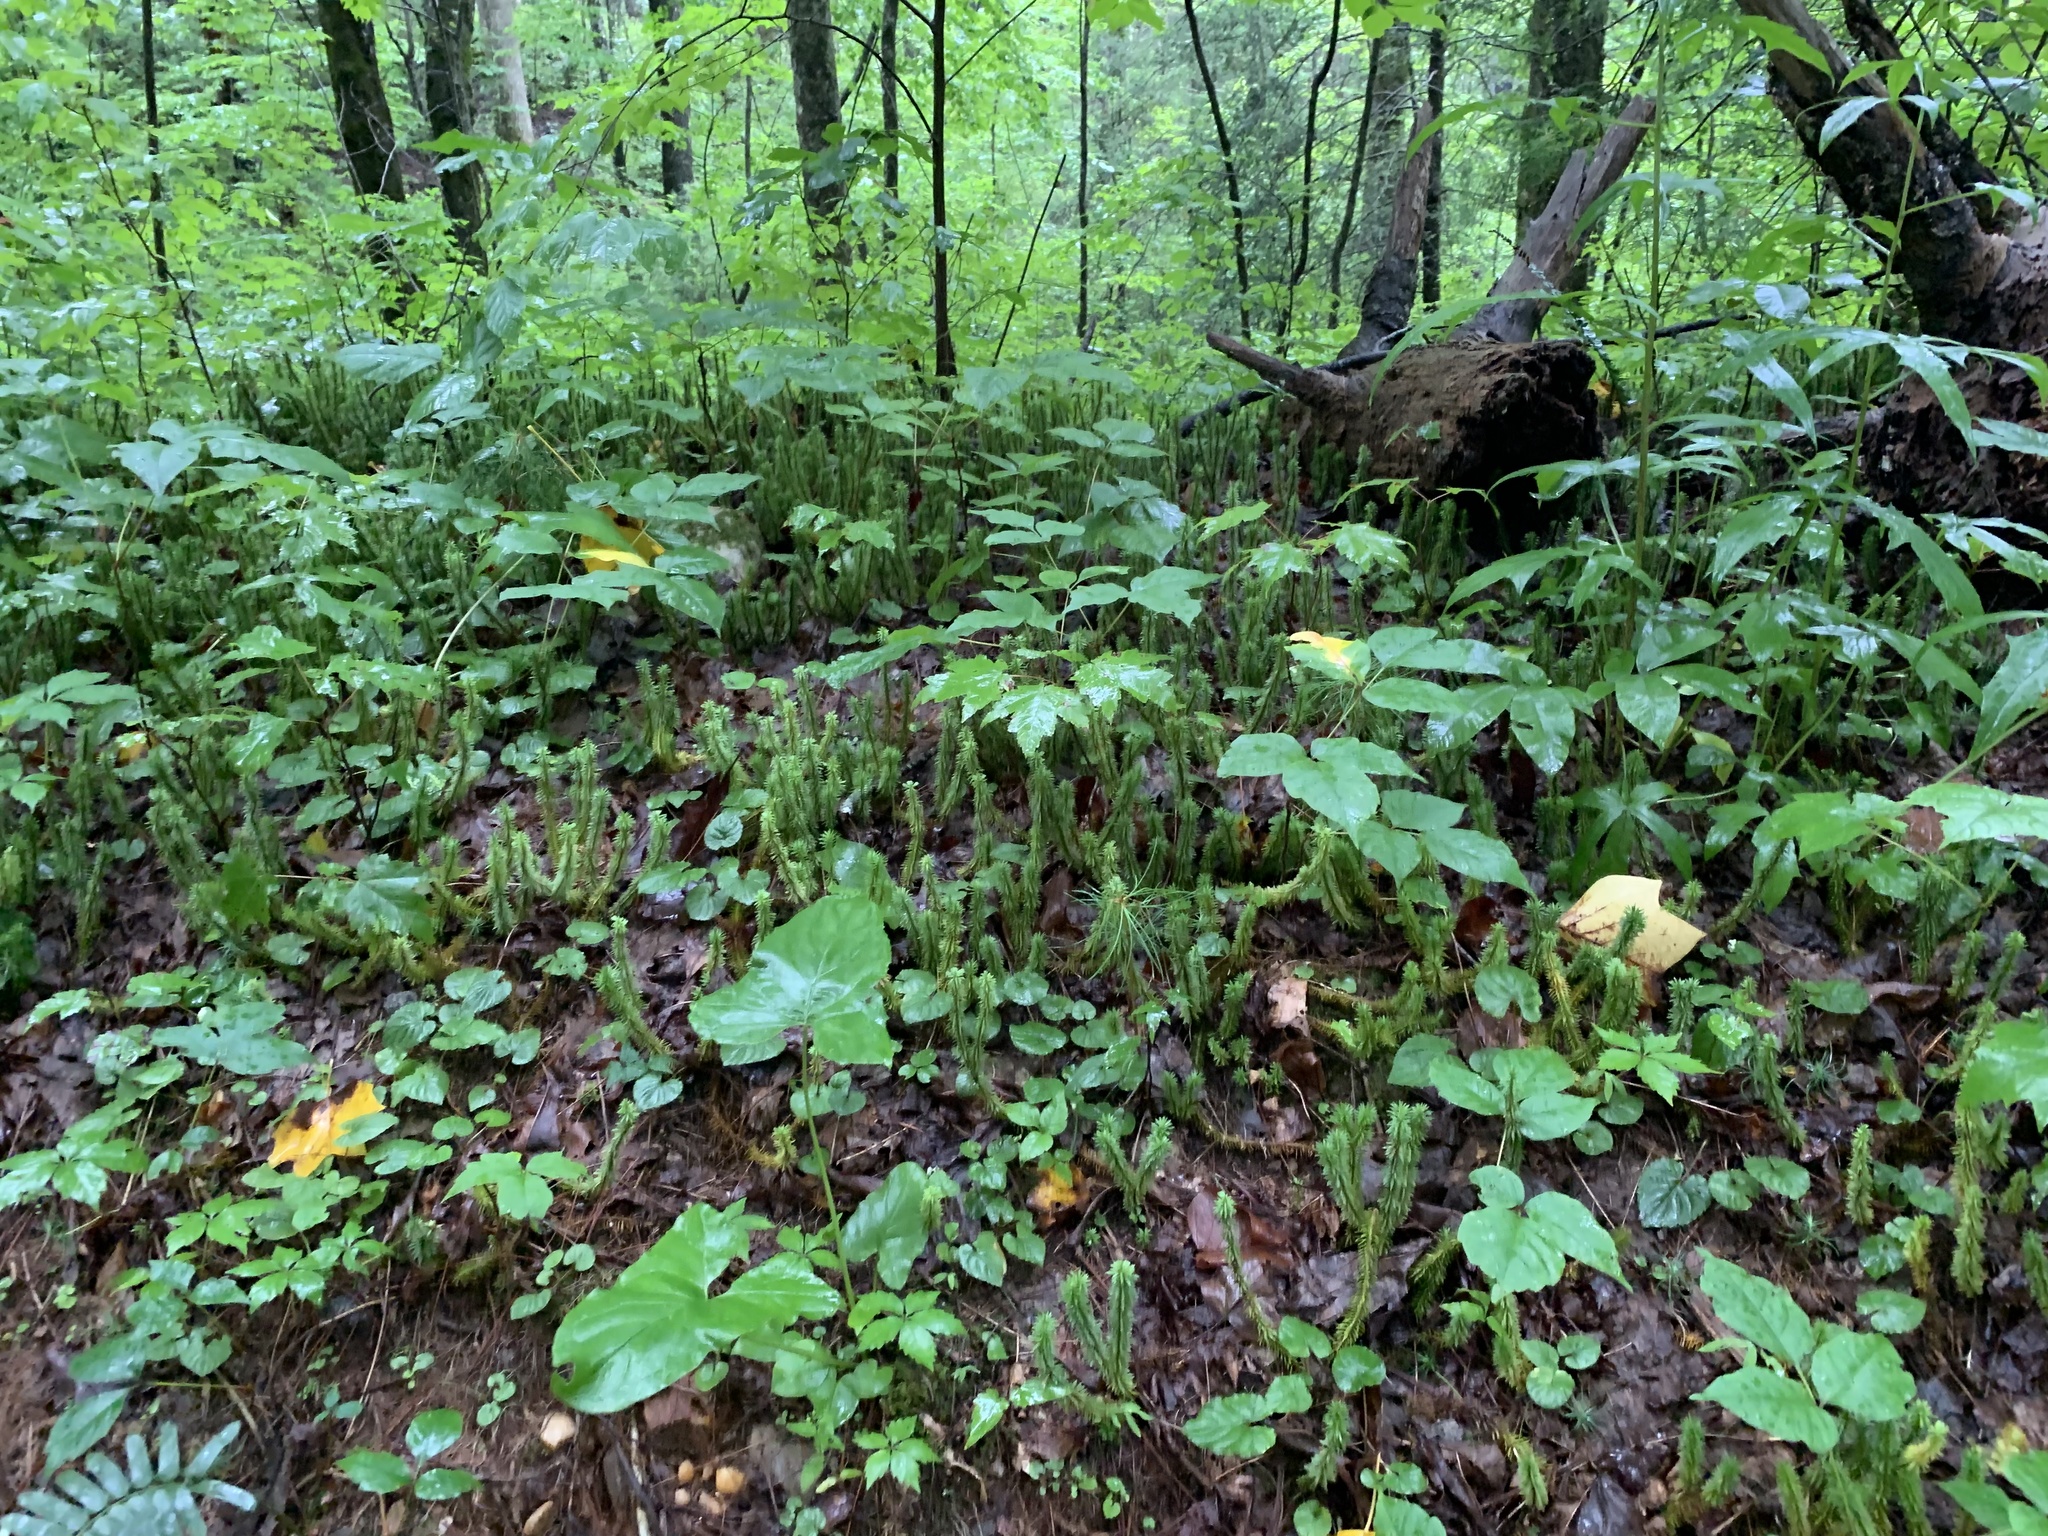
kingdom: Plantae
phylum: Tracheophyta
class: Lycopodiopsida
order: Lycopodiales
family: Lycopodiaceae
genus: Huperzia
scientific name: Huperzia lucidula
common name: Shining clubmoss
